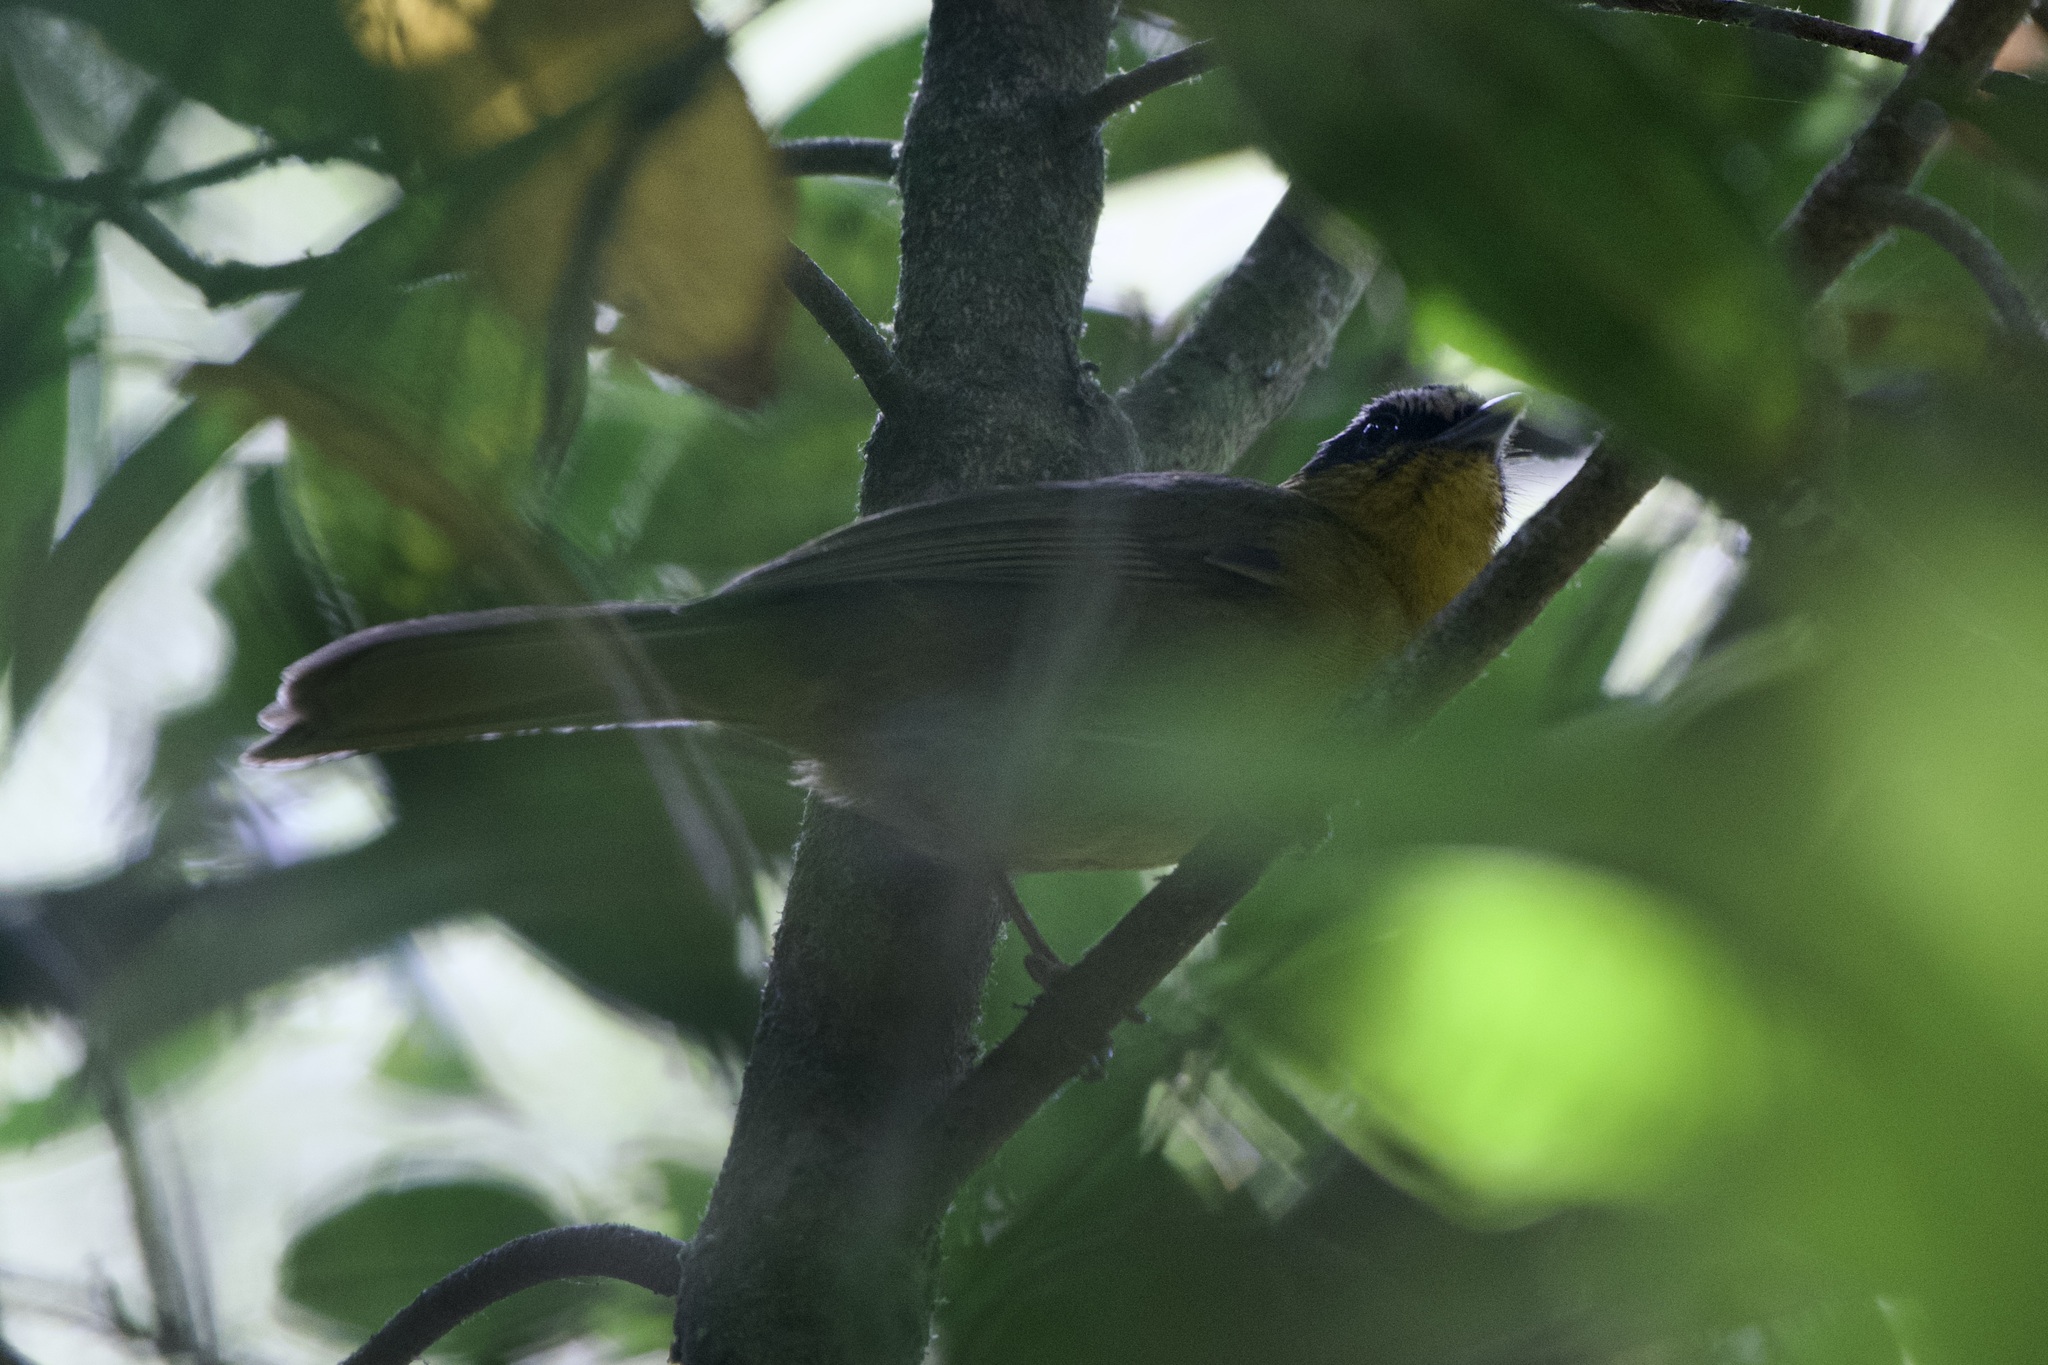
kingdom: Animalia
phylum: Chordata
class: Aves
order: Passeriformes
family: Thraupidae
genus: Kleinothraupis
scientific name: Kleinothraupis atropileus
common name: Black-capped hemispingus
